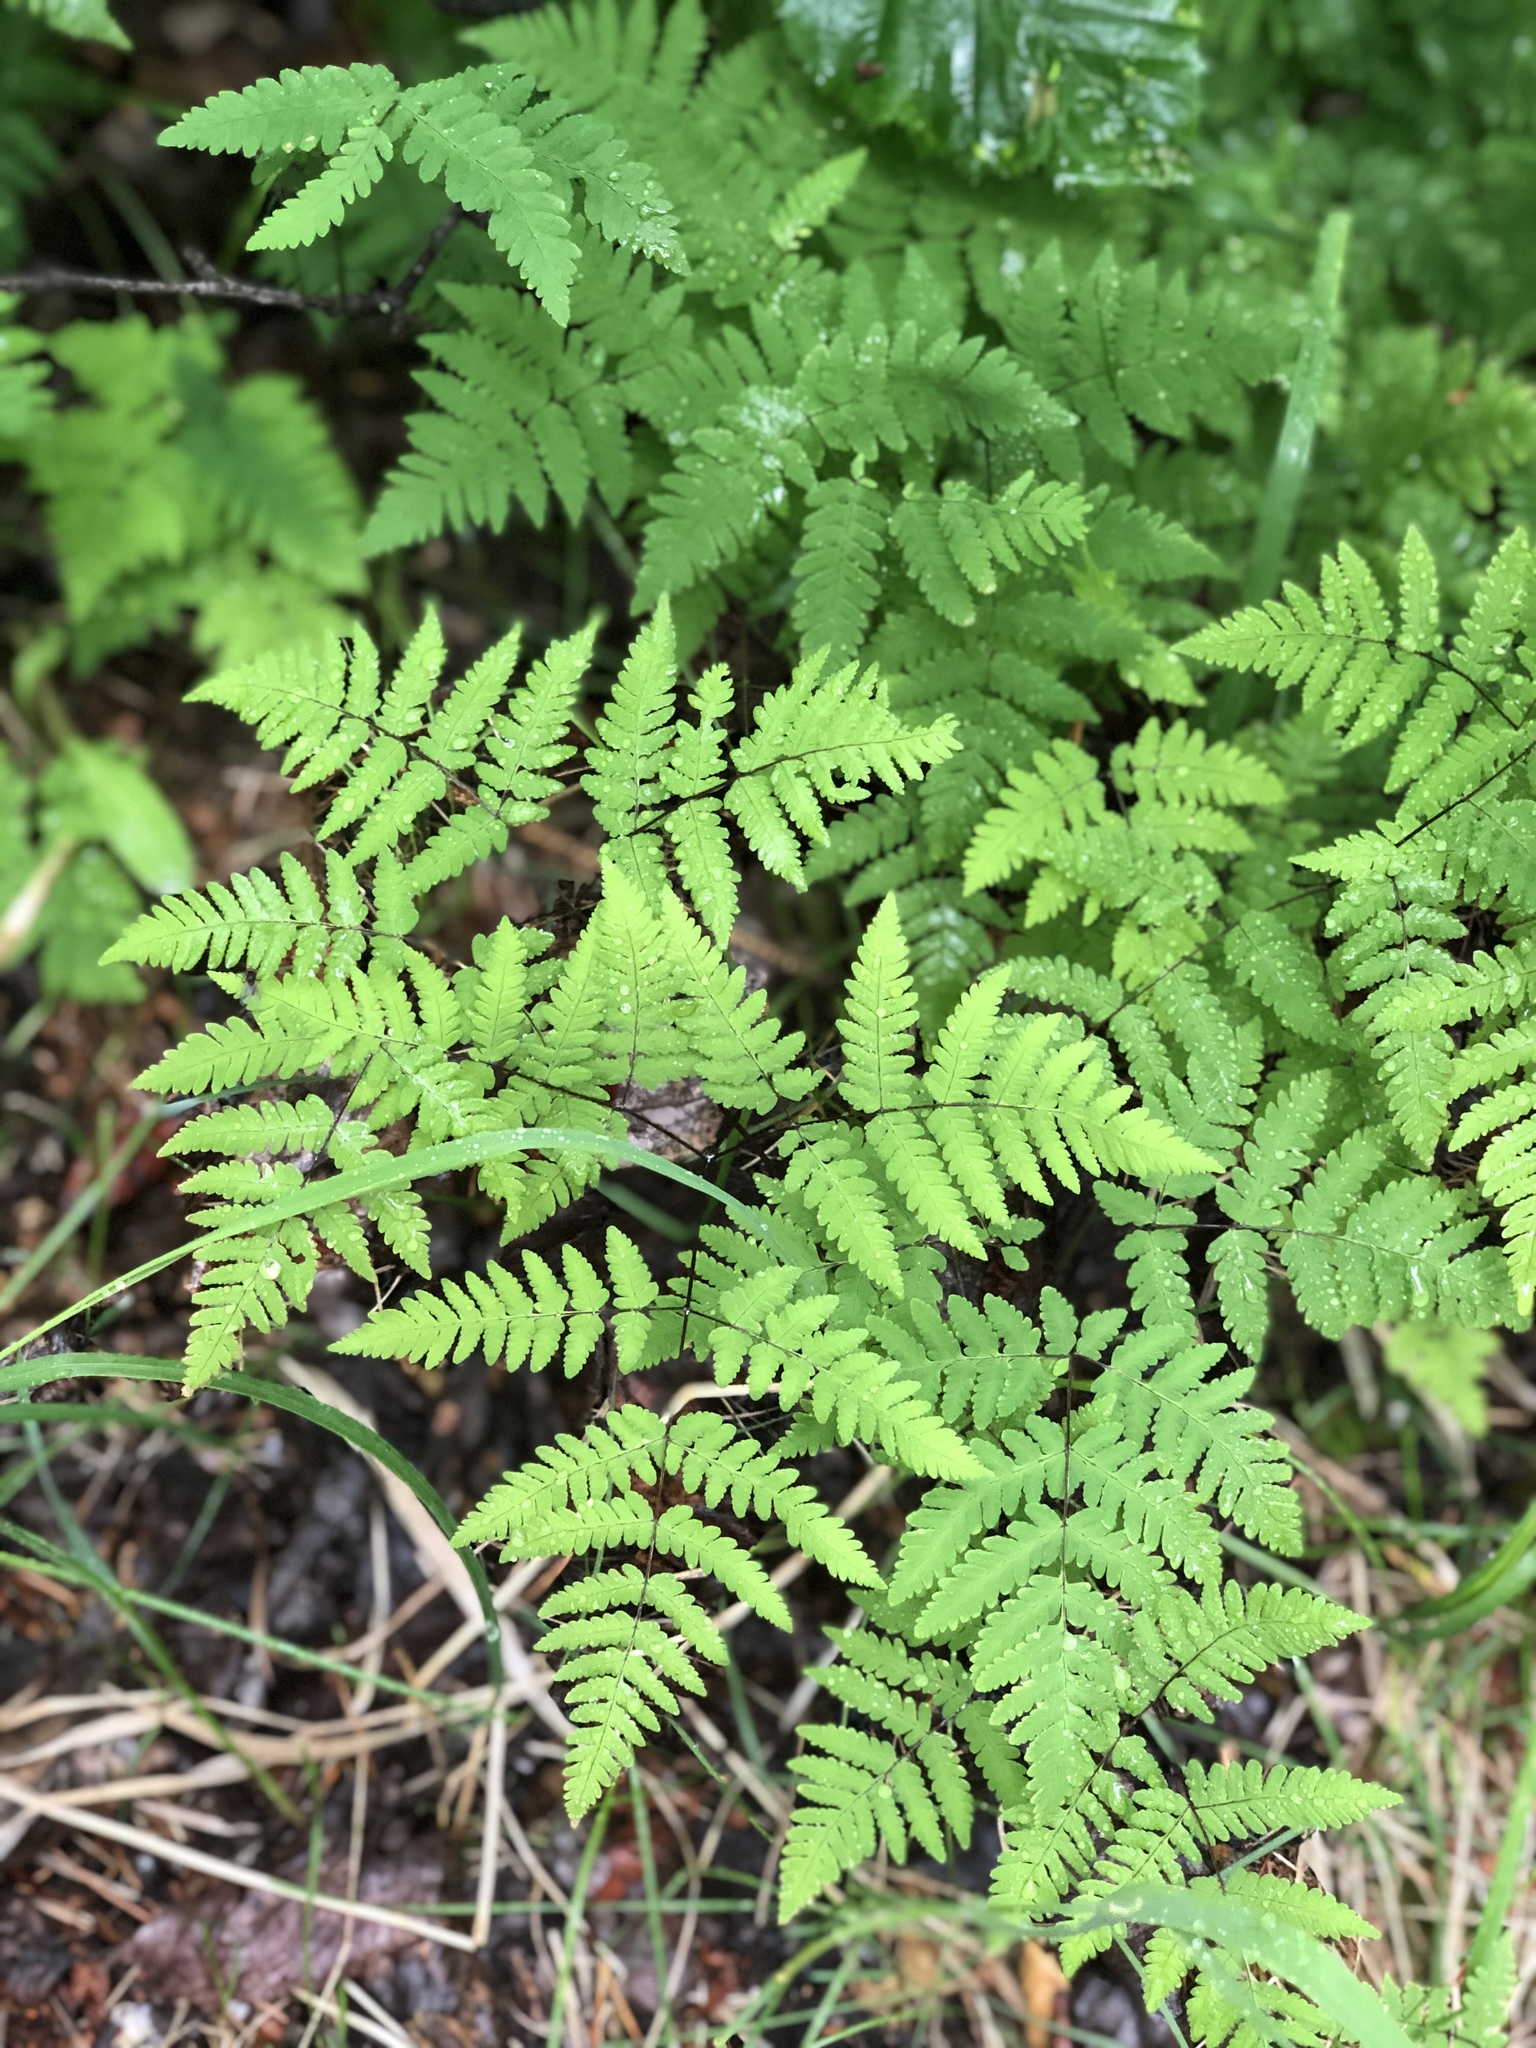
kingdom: Plantae
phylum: Tracheophyta
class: Polypodiopsida
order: Polypodiales
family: Cystopteridaceae
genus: Gymnocarpium
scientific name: Gymnocarpium disjunctum
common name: Western oak fern
